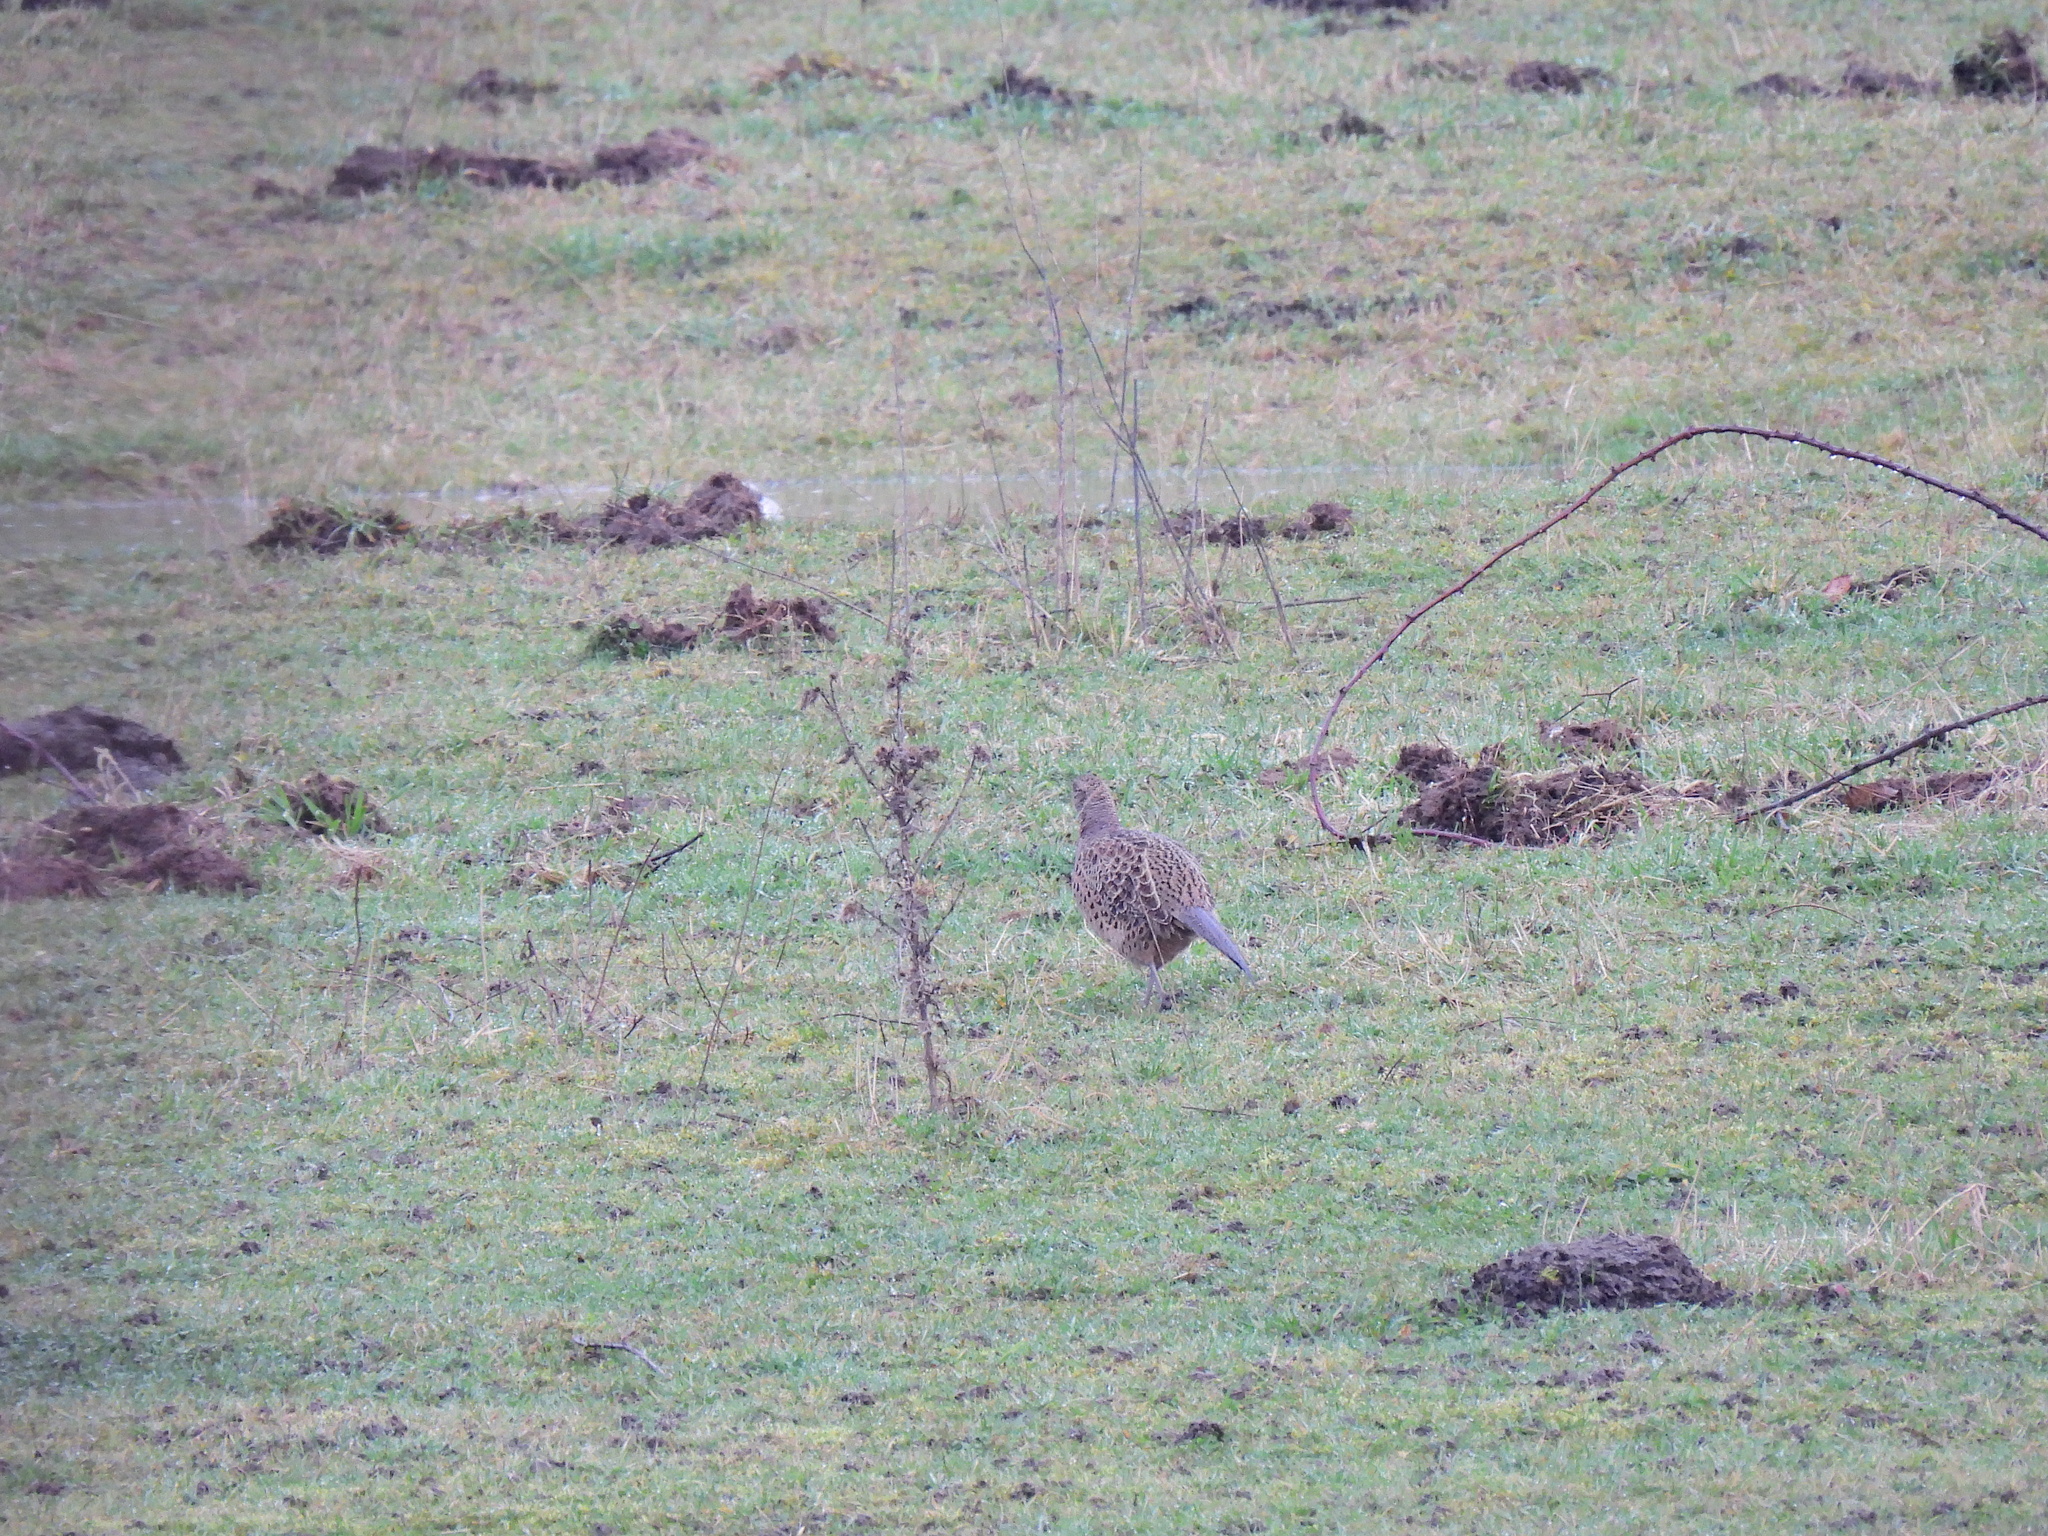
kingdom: Animalia
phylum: Chordata
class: Aves
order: Galliformes
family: Phasianidae
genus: Phasianus
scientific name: Phasianus colchicus
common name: Common pheasant
